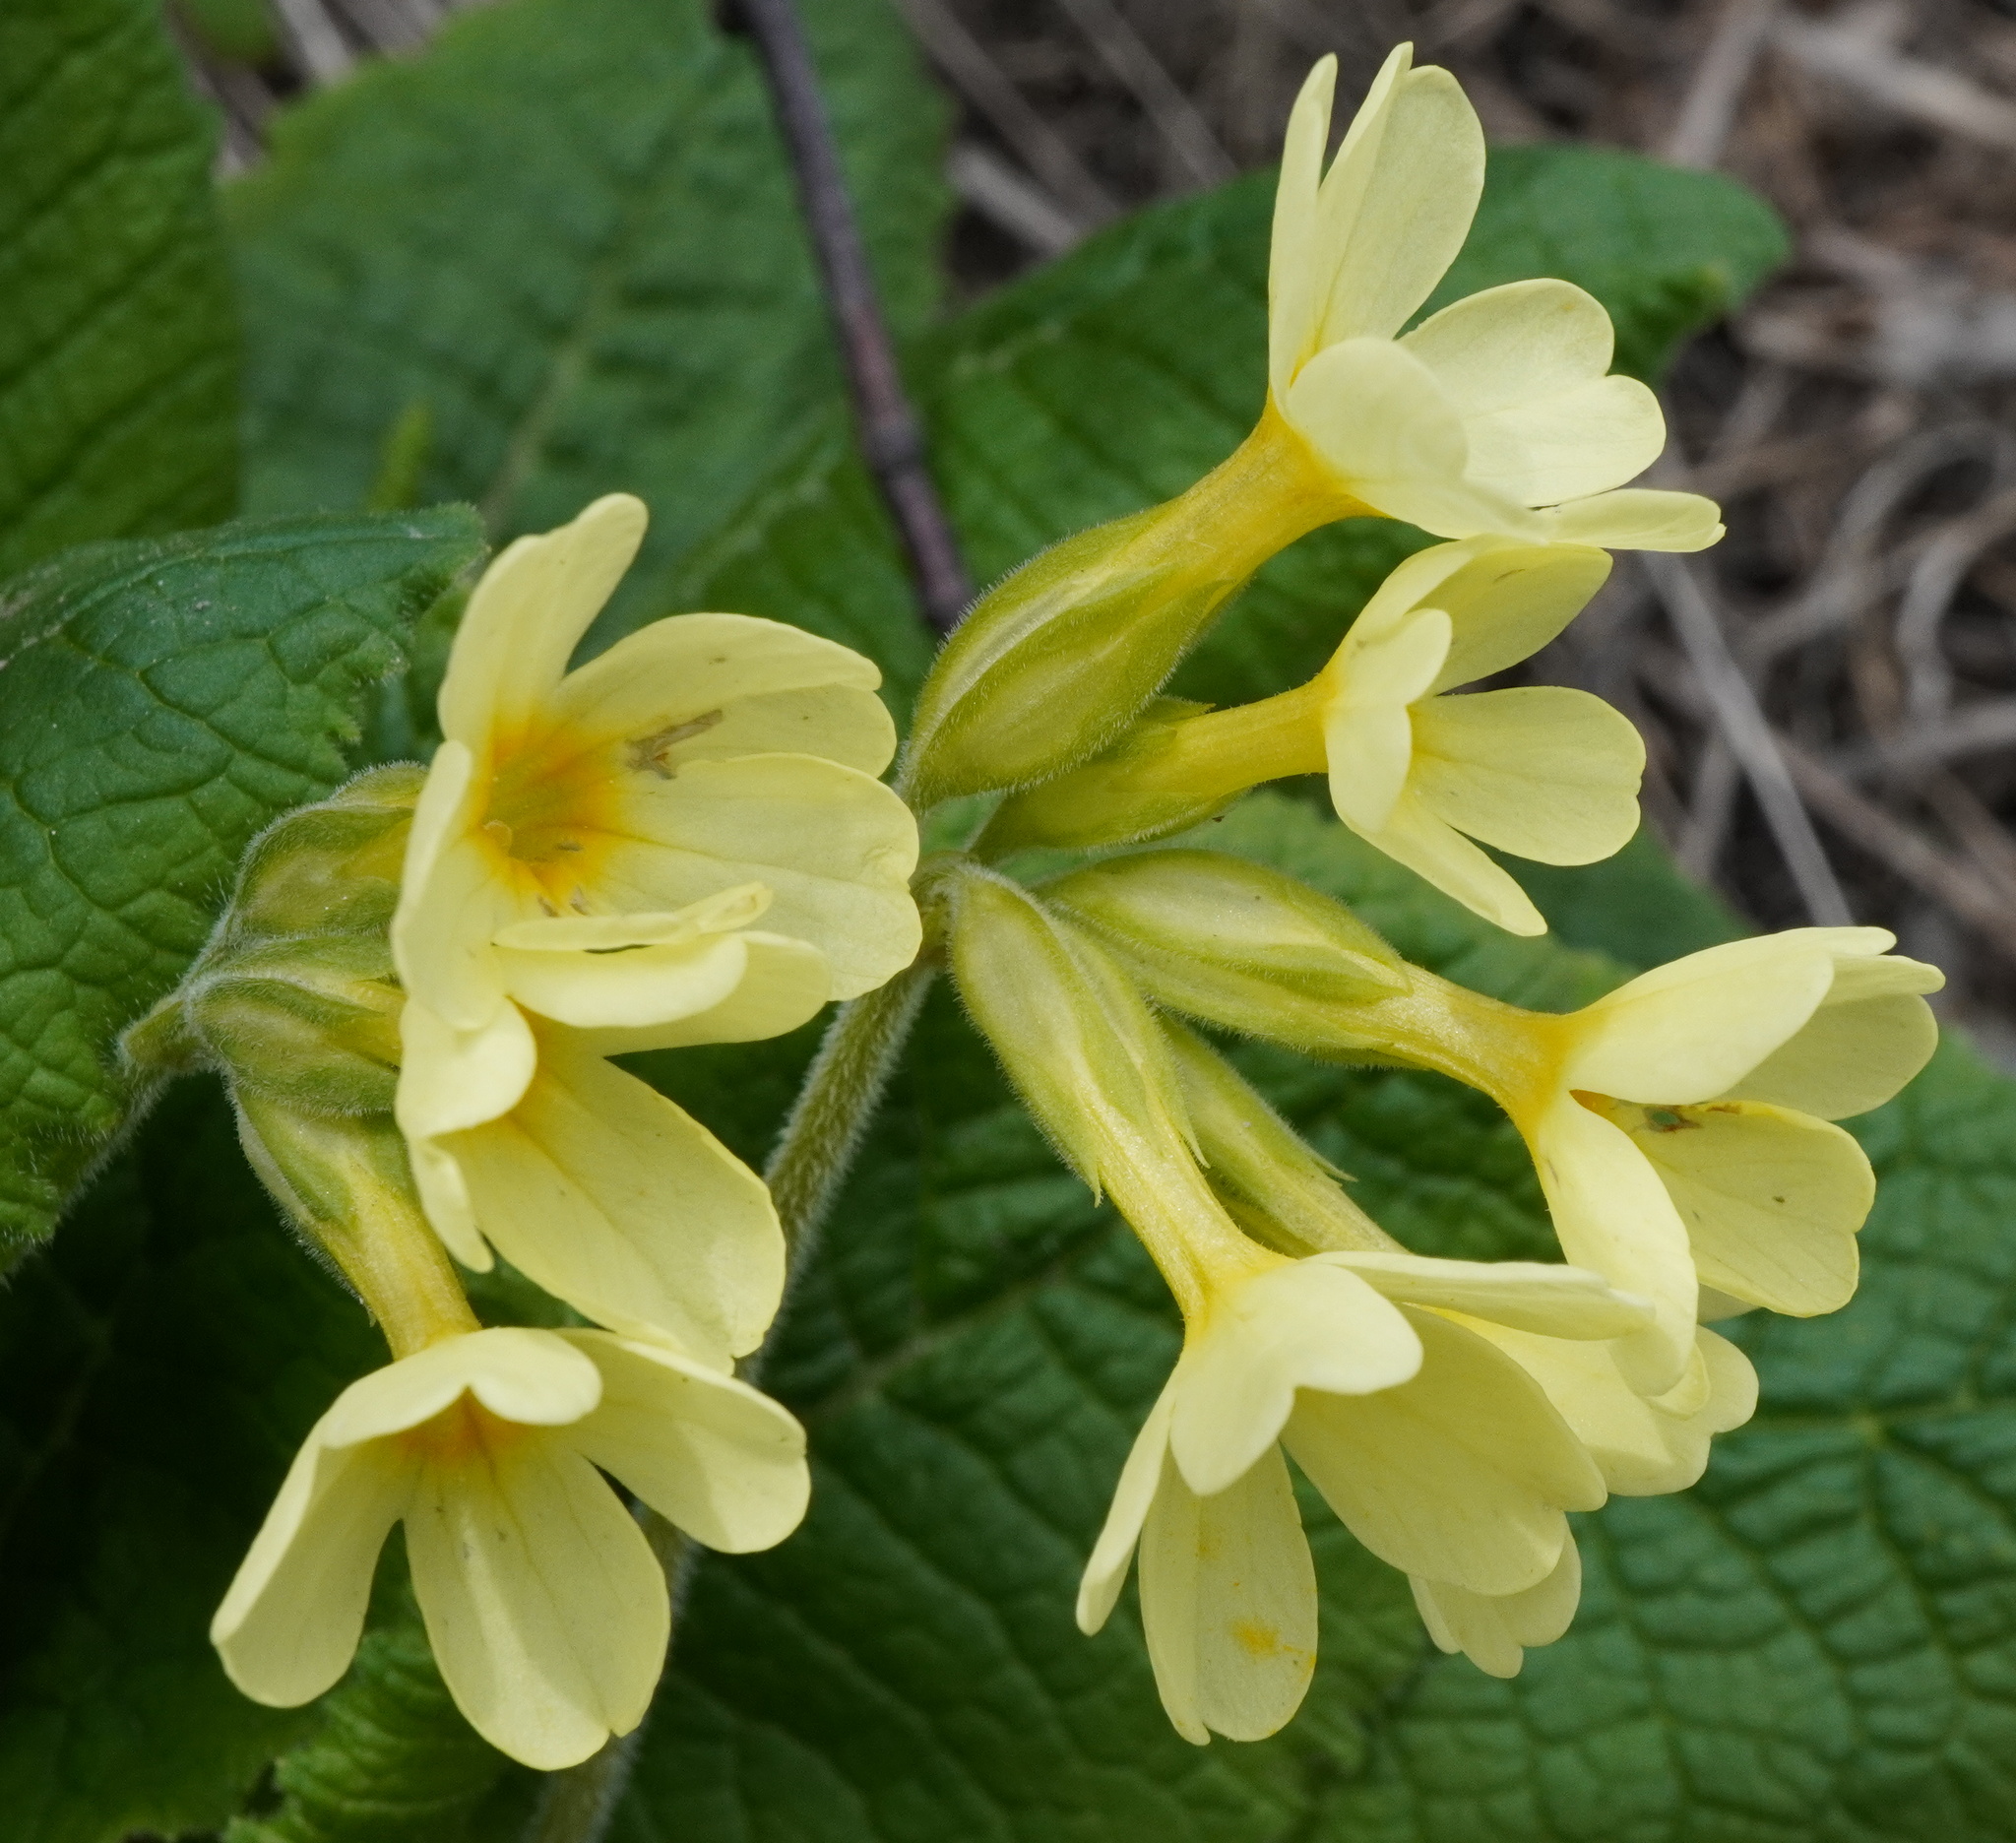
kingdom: Plantae
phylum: Tracheophyta
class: Magnoliopsida
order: Ericales
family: Primulaceae
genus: Primula
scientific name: Primula elatior
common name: Oxlip
